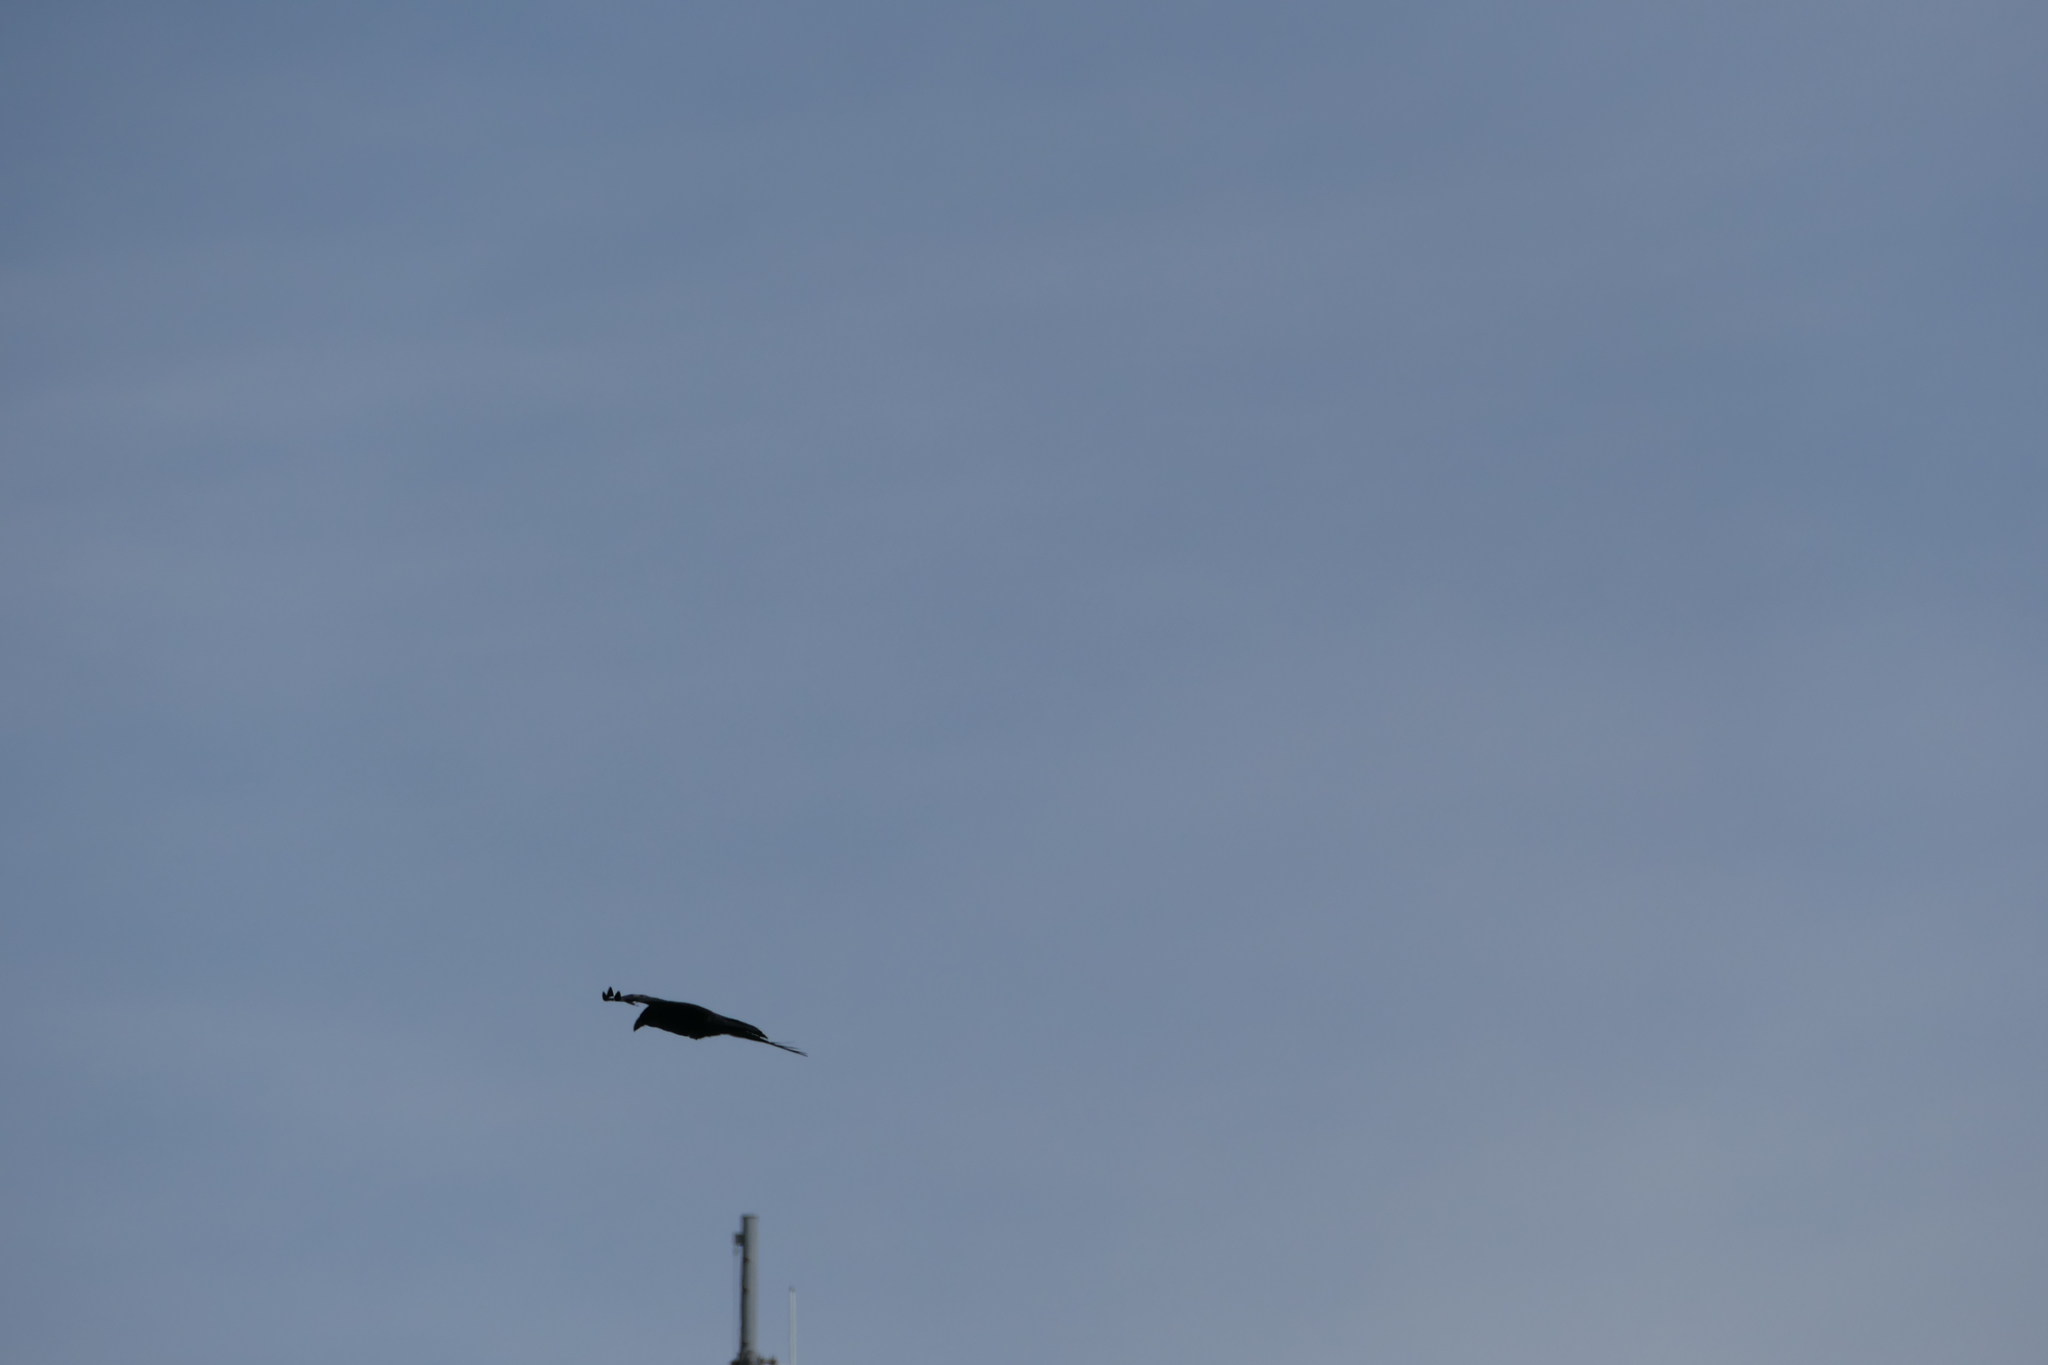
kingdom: Animalia
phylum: Chordata
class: Aves
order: Passeriformes
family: Corvidae
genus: Corvus
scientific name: Corvus corax
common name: Common raven
